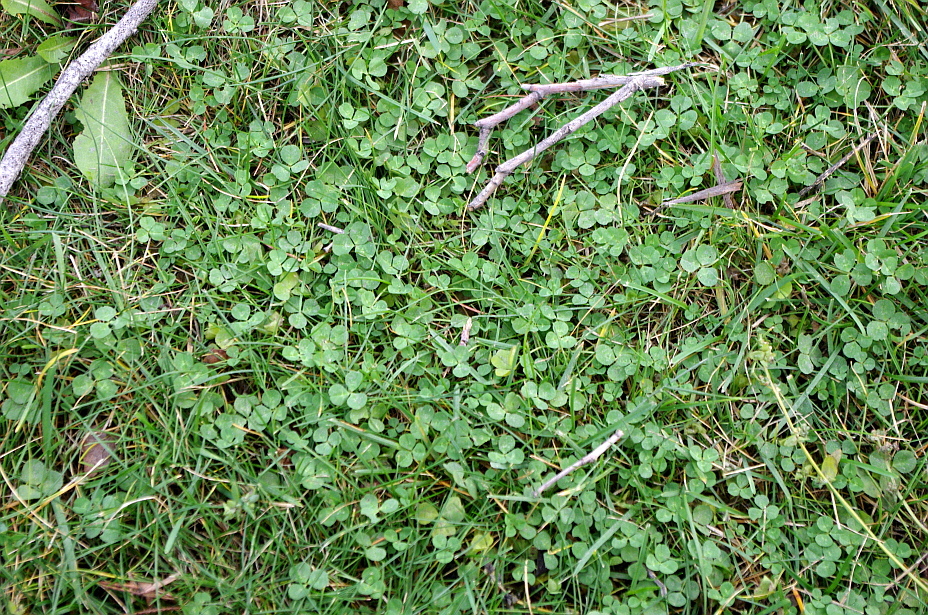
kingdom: Plantae
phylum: Tracheophyta
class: Magnoliopsida
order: Fabales
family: Fabaceae
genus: Trifolium
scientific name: Trifolium repens
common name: White clover
